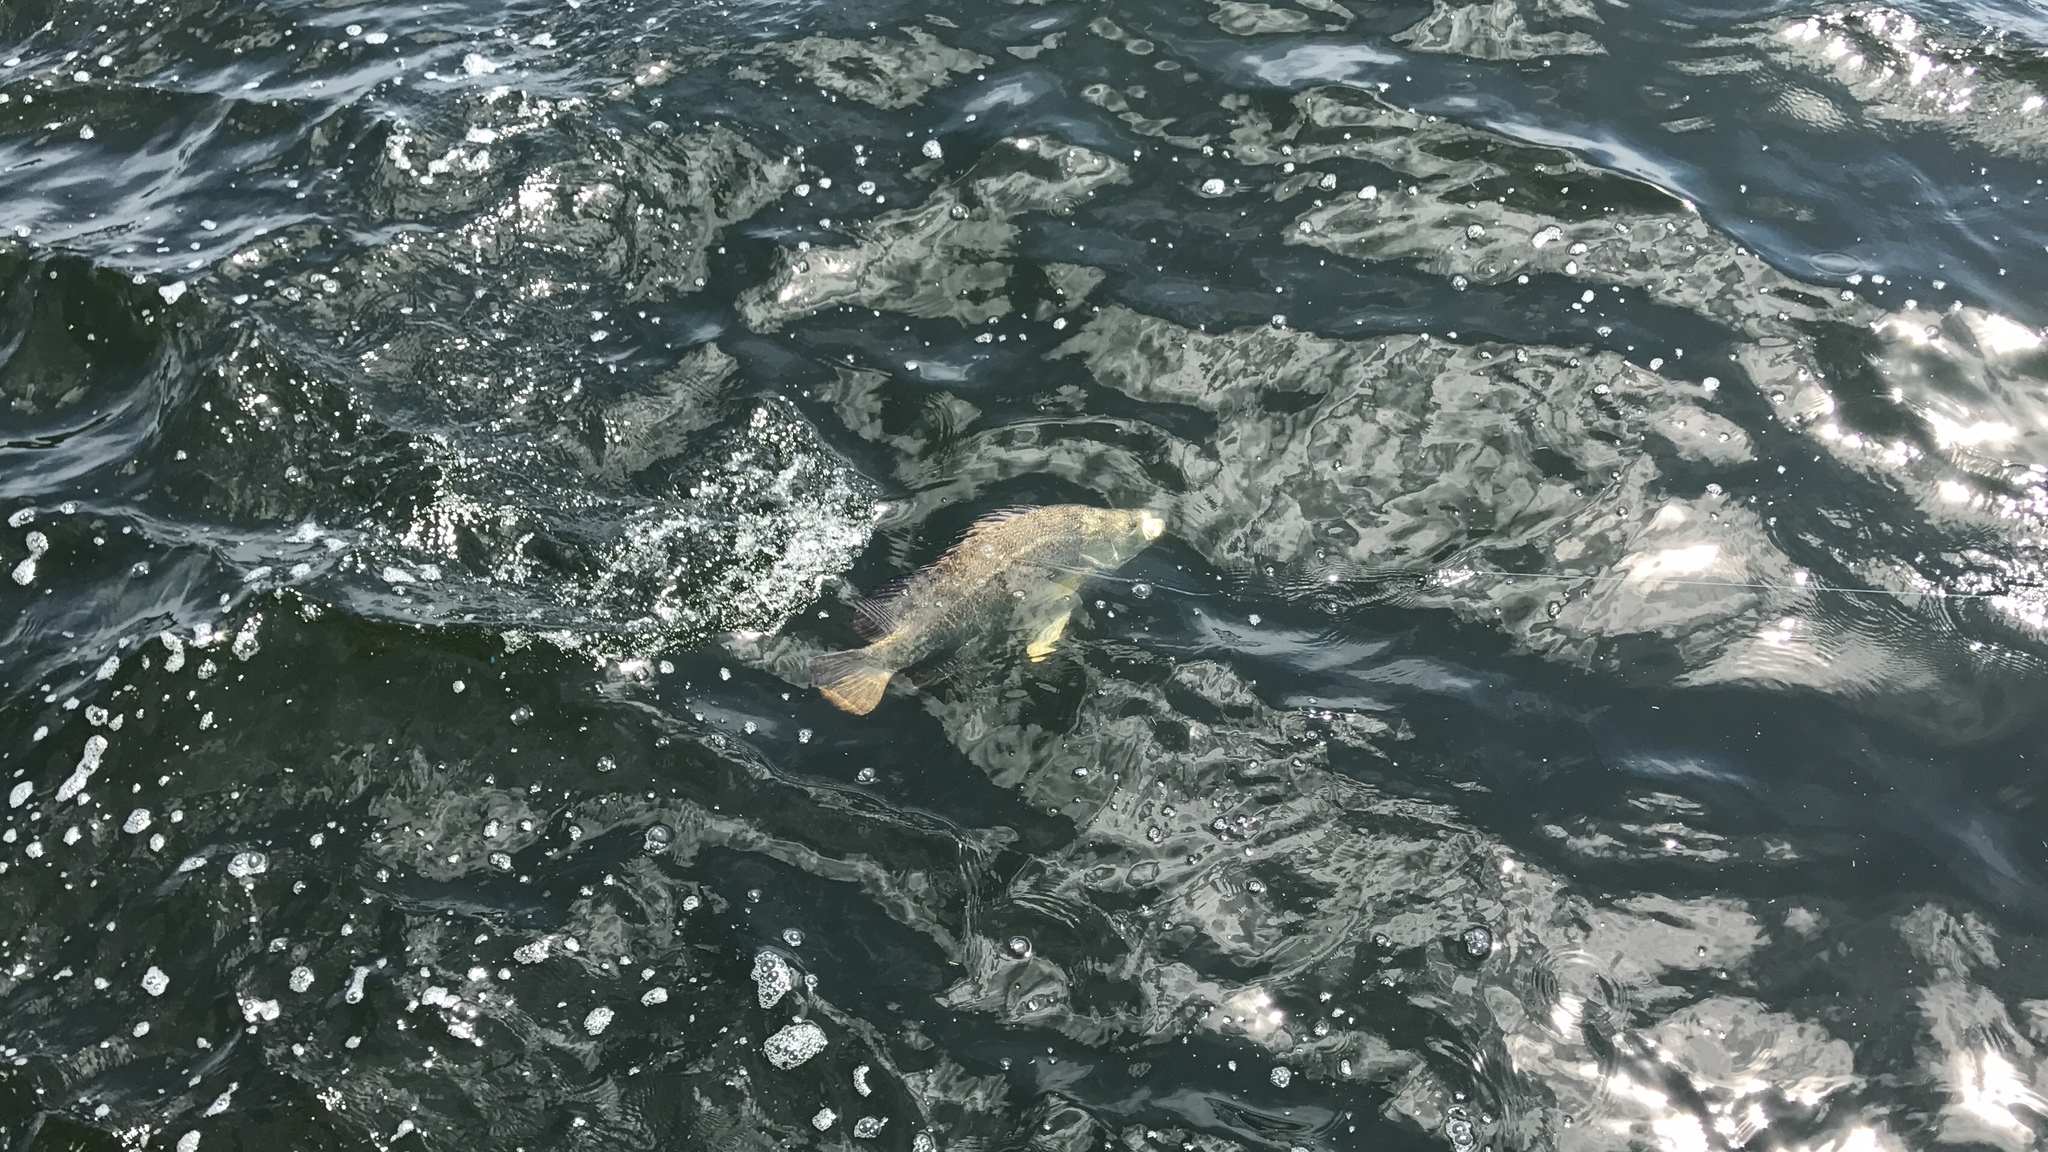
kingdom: Animalia
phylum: Chordata
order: Perciformes
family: Lobotidae
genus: Lobotes
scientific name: Lobotes surinamensis
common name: Atlantic tripletail
